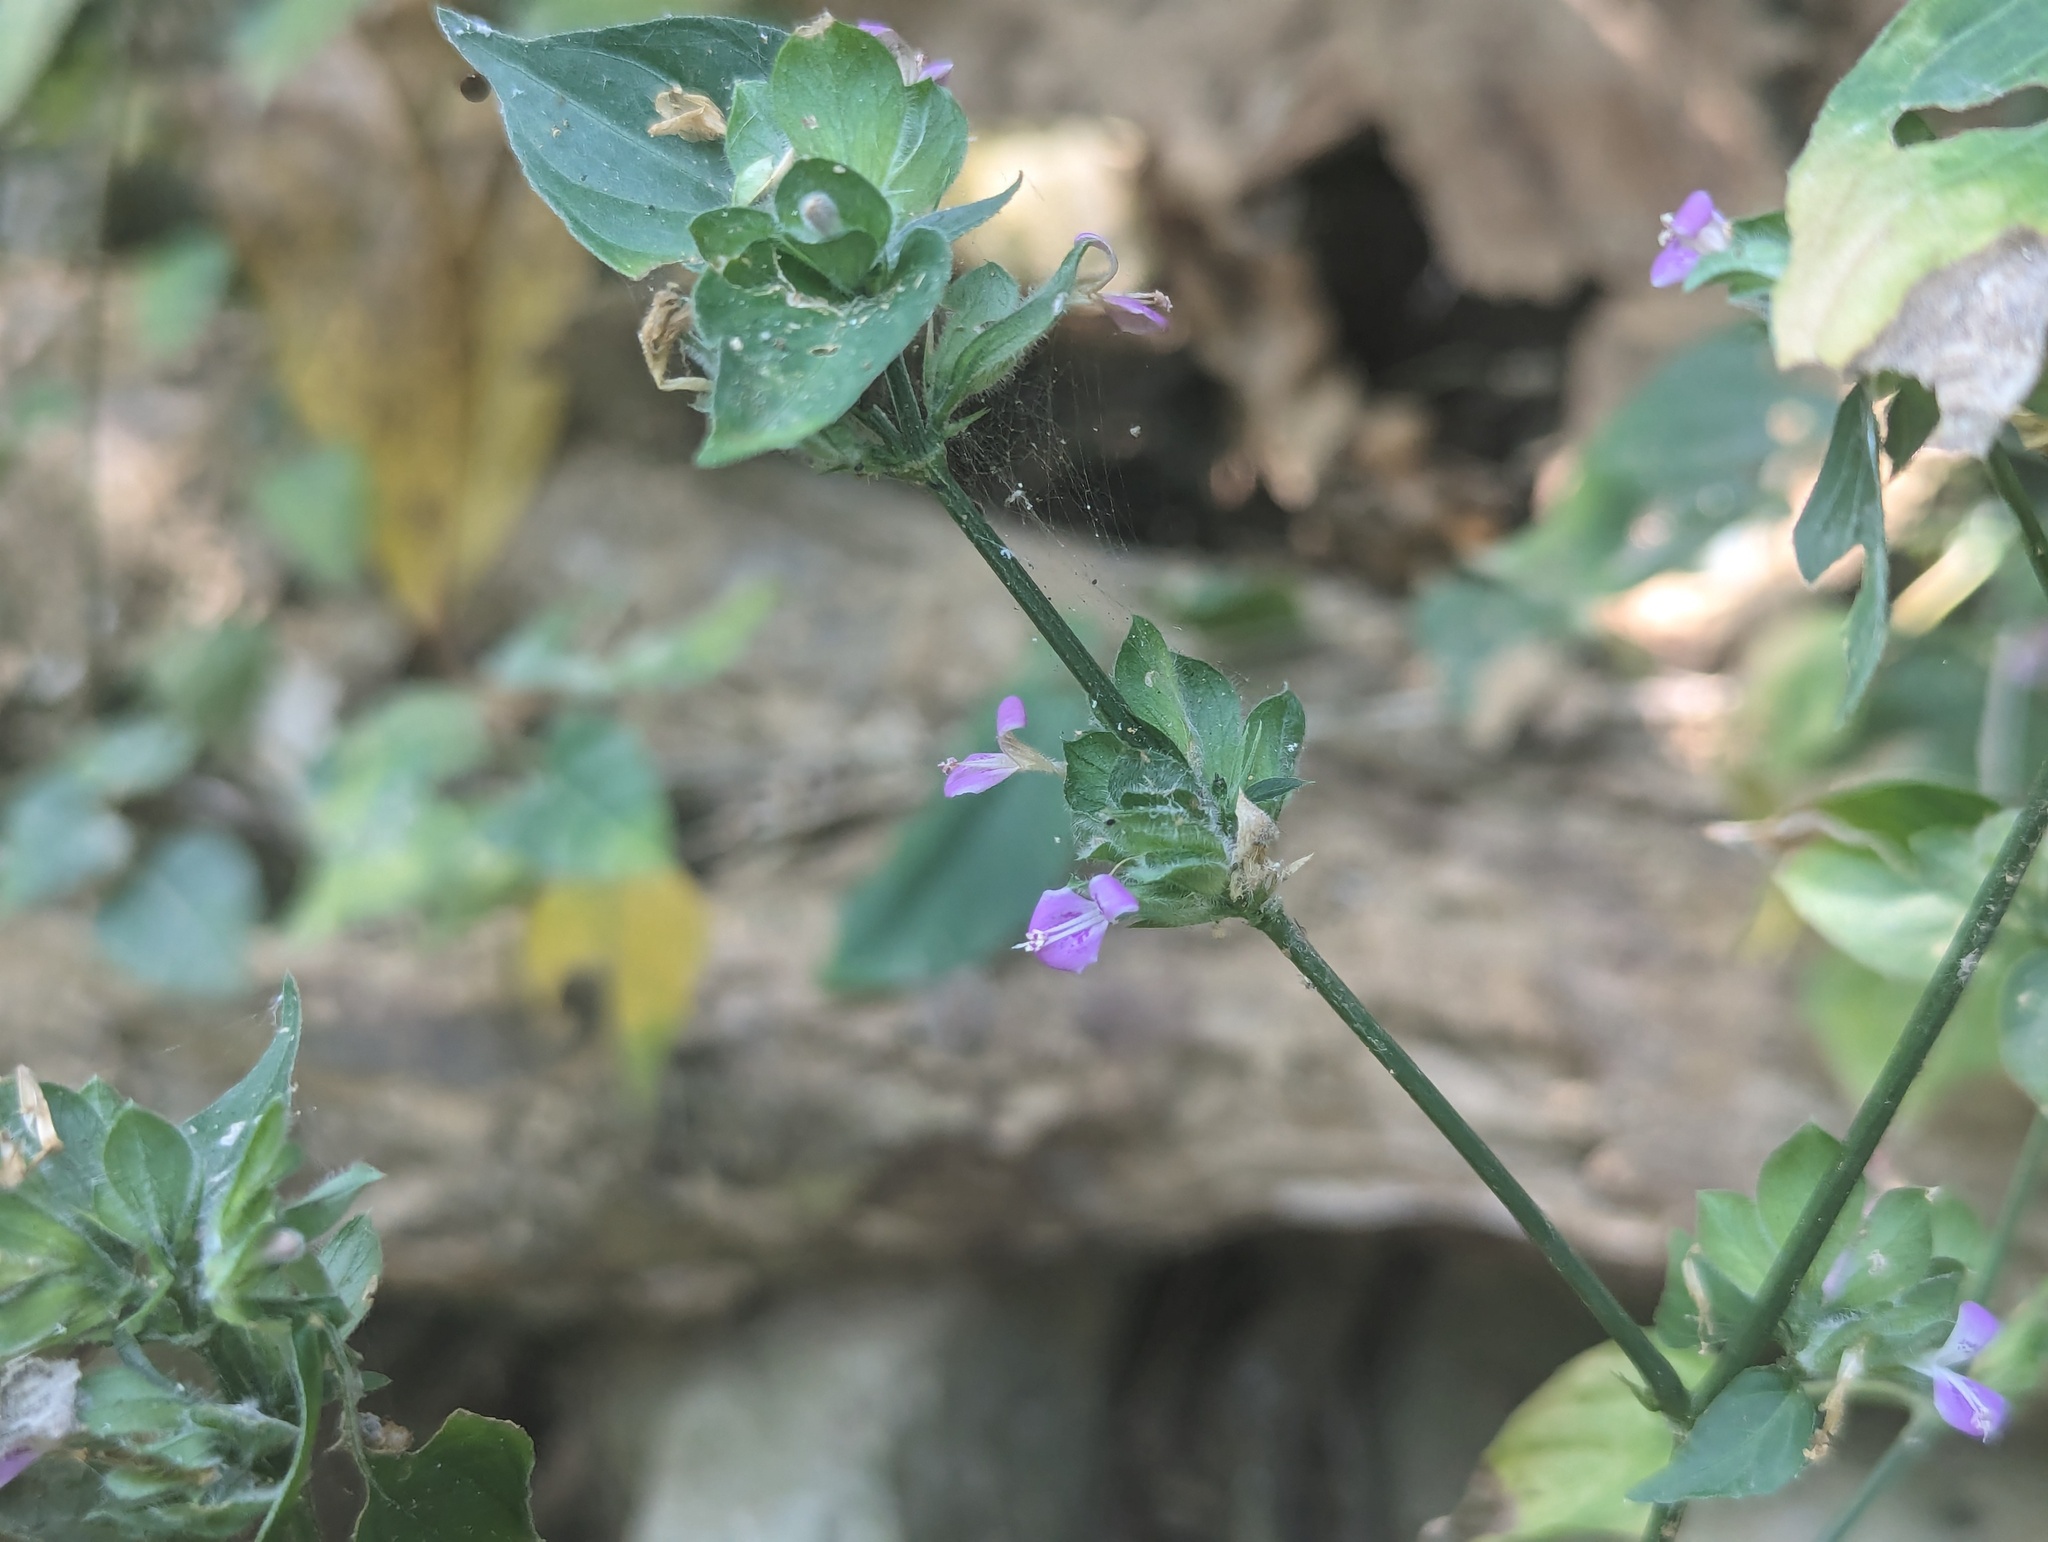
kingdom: Plantae
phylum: Tracheophyta
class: Magnoliopsida
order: Lamiales
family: Acanthaceae
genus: Dicliptera
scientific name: Dicliptera chinensis
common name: Chinese foldwing
